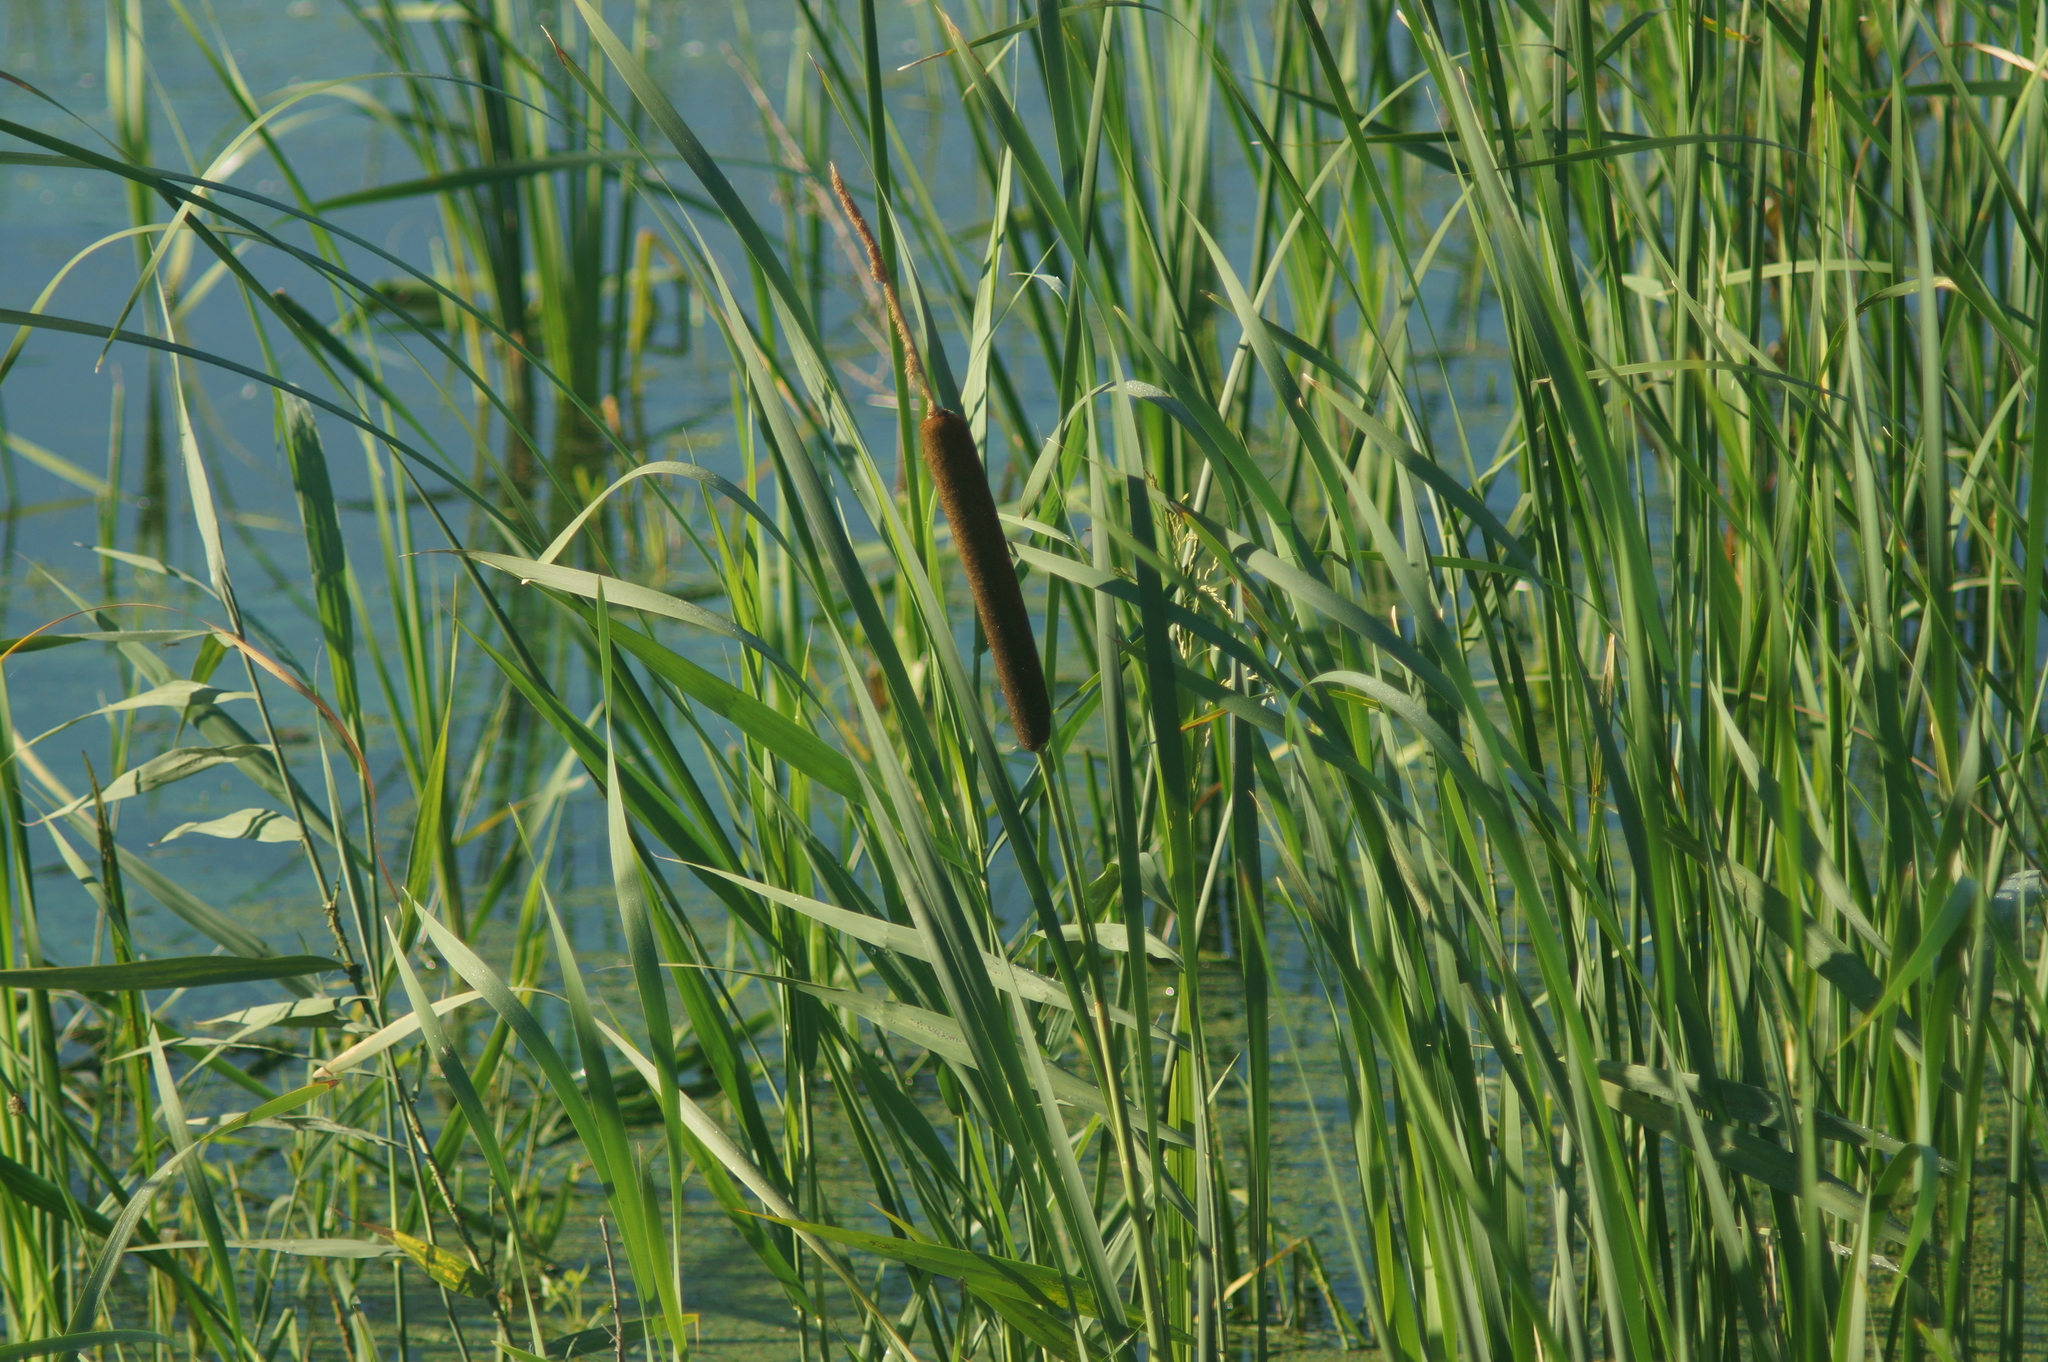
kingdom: Plantae
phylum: Tracheophyta
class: Liliopsida
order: Poales
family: Typhaceae
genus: Typha
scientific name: Typha latifolia
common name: Broadleaf cattail
